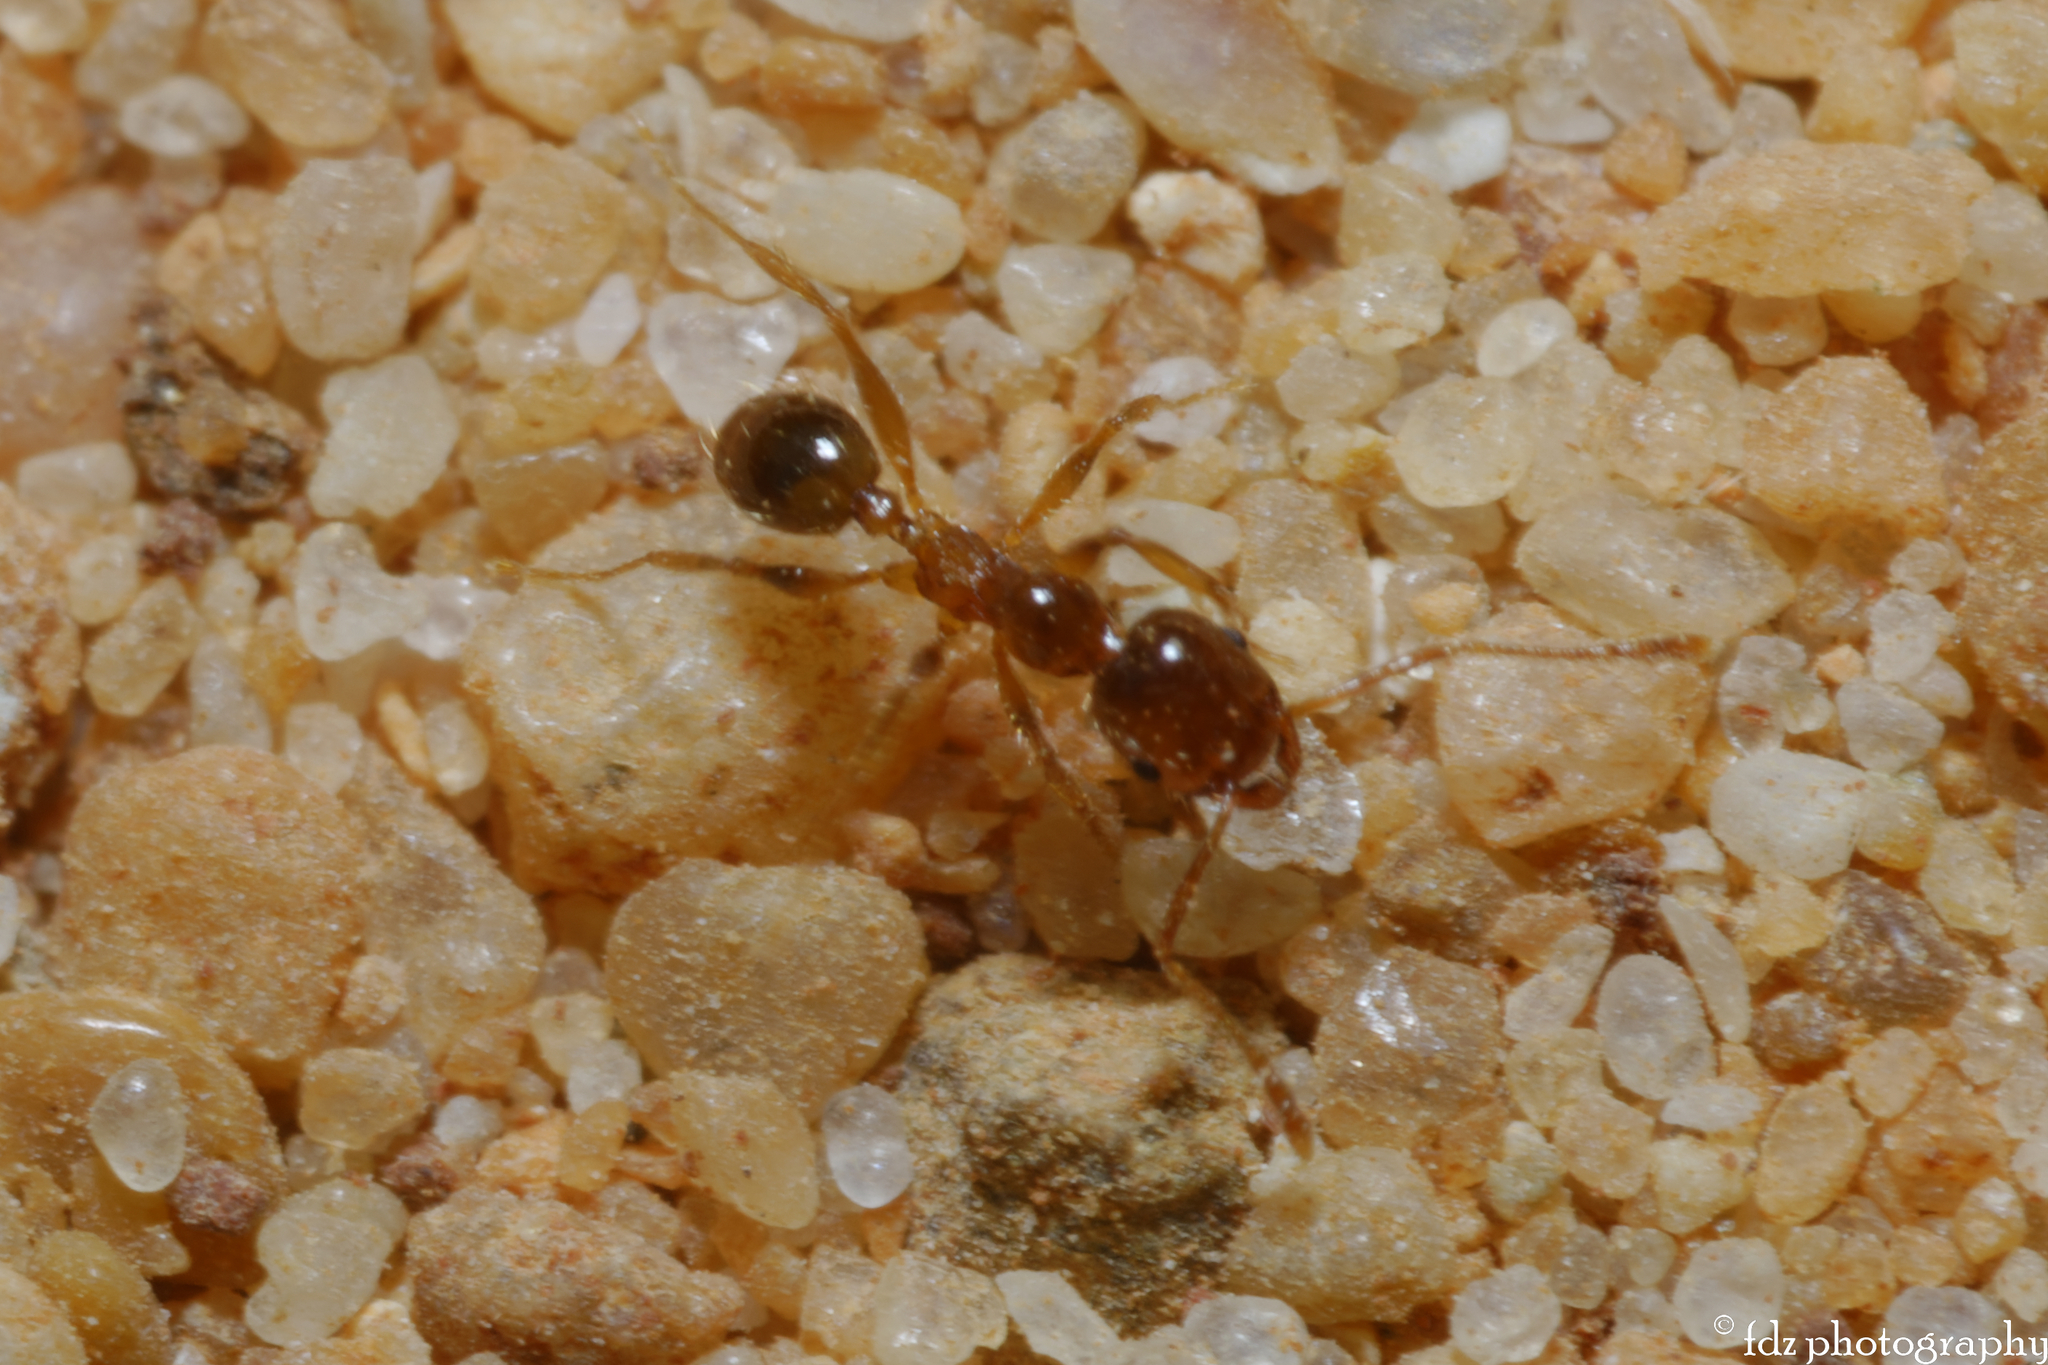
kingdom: Animalia
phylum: Arthropoda
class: Insecta
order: Hymenoptera
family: Formicidae
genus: Pheidole
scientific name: Pheidole pallidula
